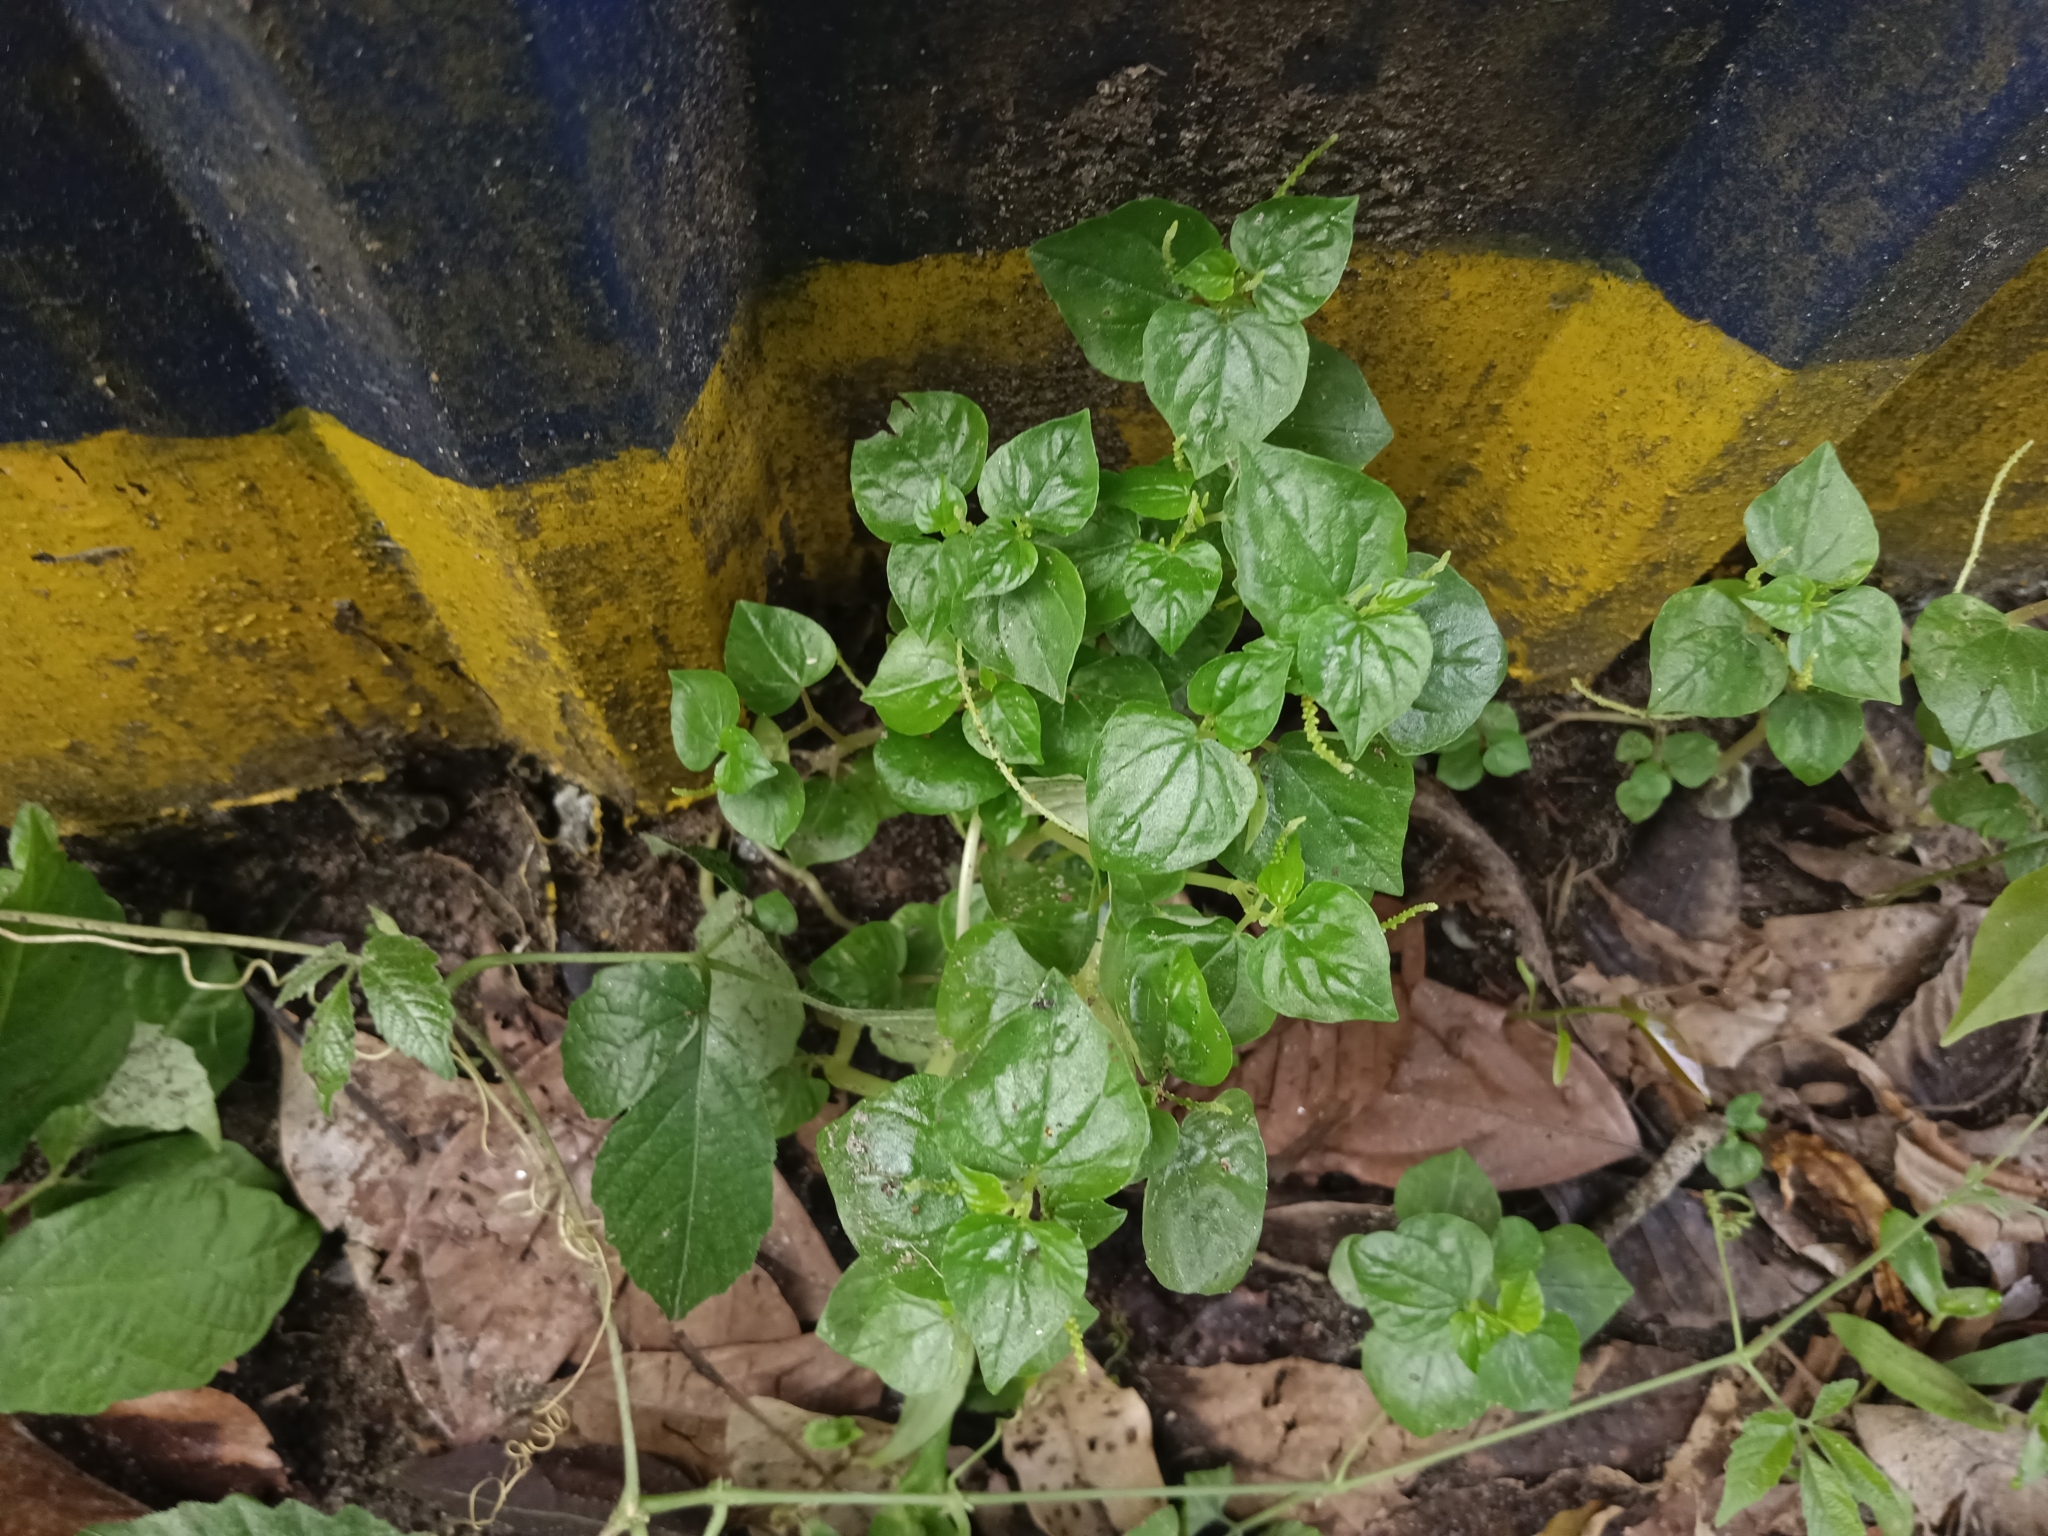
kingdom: Plantae
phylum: Tracheophyta
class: Magnoliopsida
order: Piperales
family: Piperaceae
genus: Peperomia
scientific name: Peperomia pellucida
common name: Man to man
